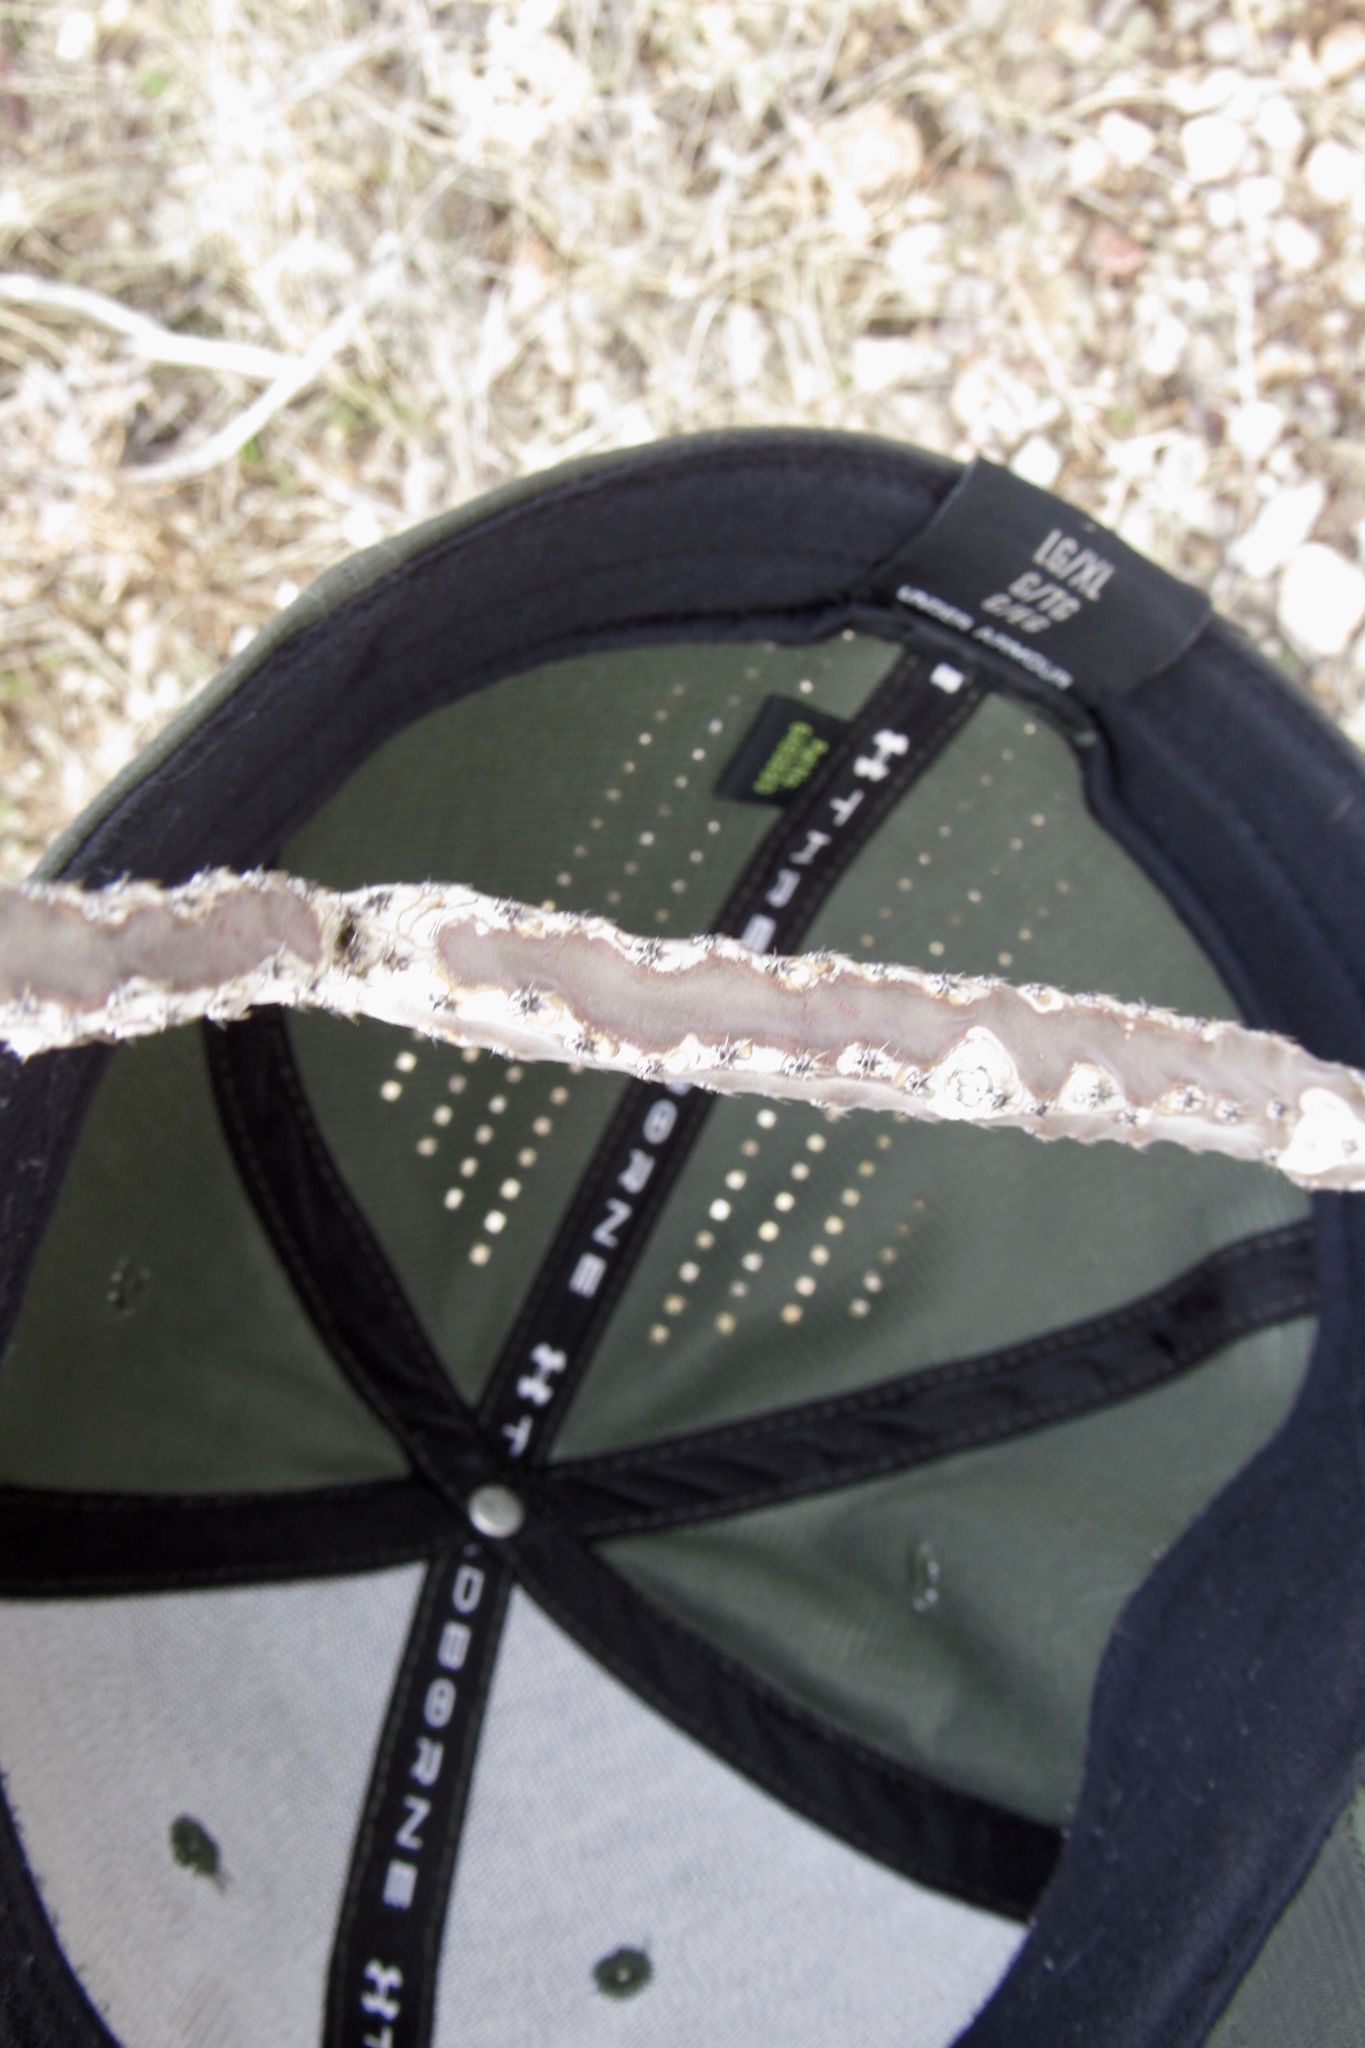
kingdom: Plantae
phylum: Tracheophyta
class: Magnoliopsida
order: Caryophyllales
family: Cactaceae
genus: Peniocereus
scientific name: Peniocereus greggii
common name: Desert night-blooming cereus
